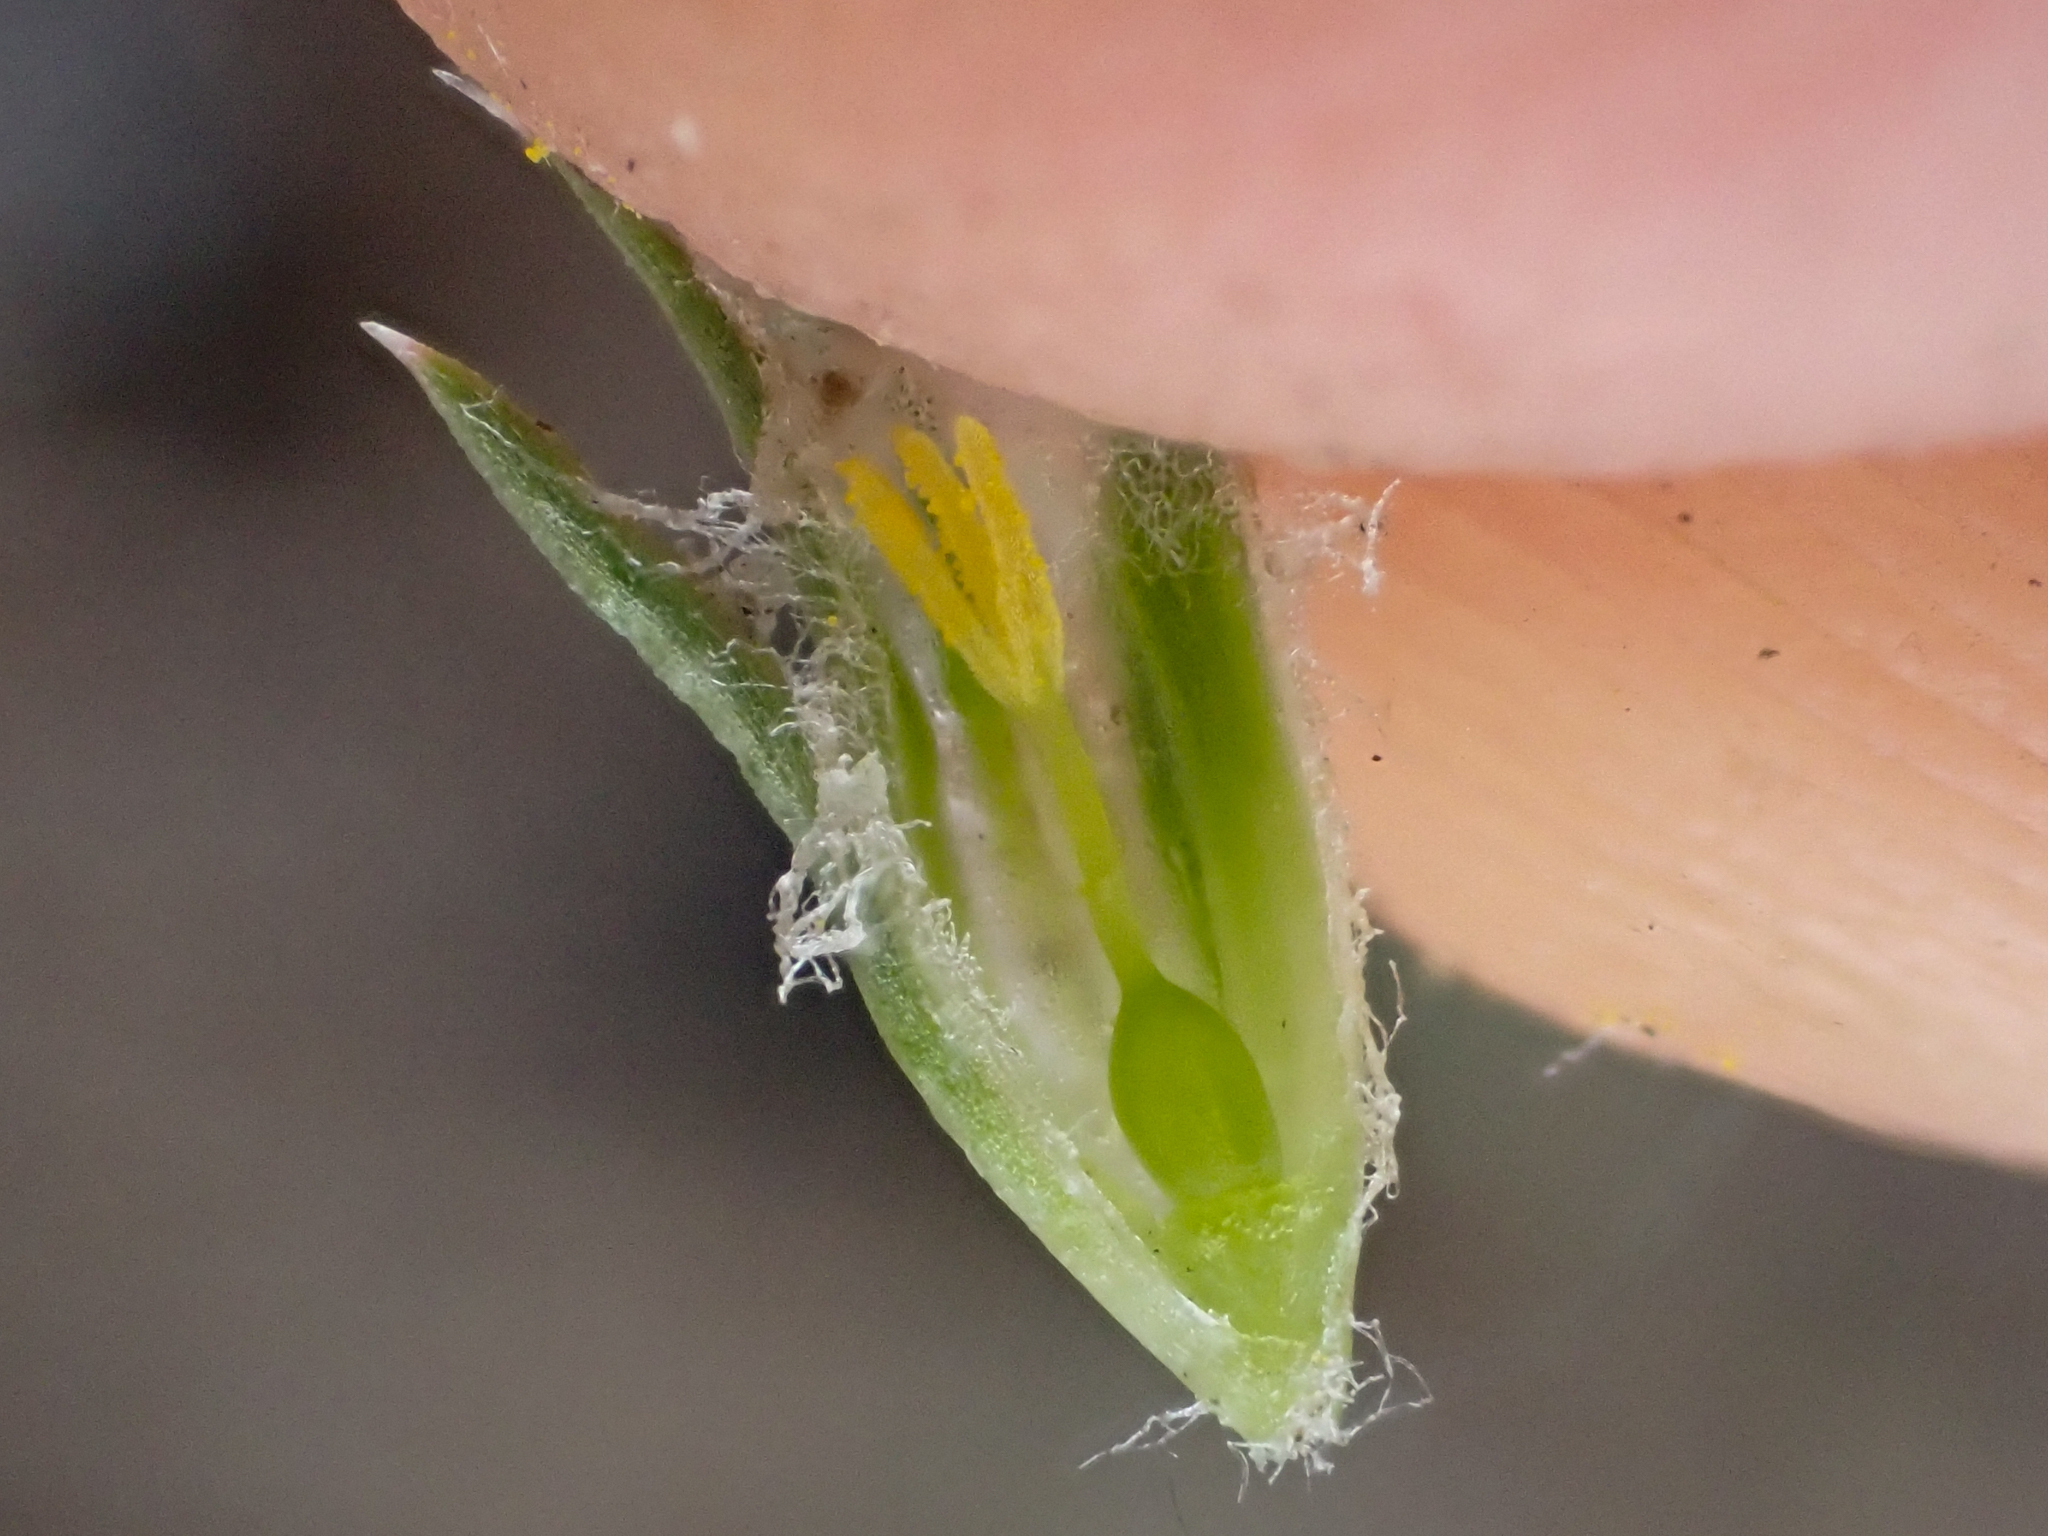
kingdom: Plantae
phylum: Tracheophyta
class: Magnoliopsida
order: Ericales
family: Polemoniaceae
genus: Phlox
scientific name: Phlox hoodii
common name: Moss phlox
